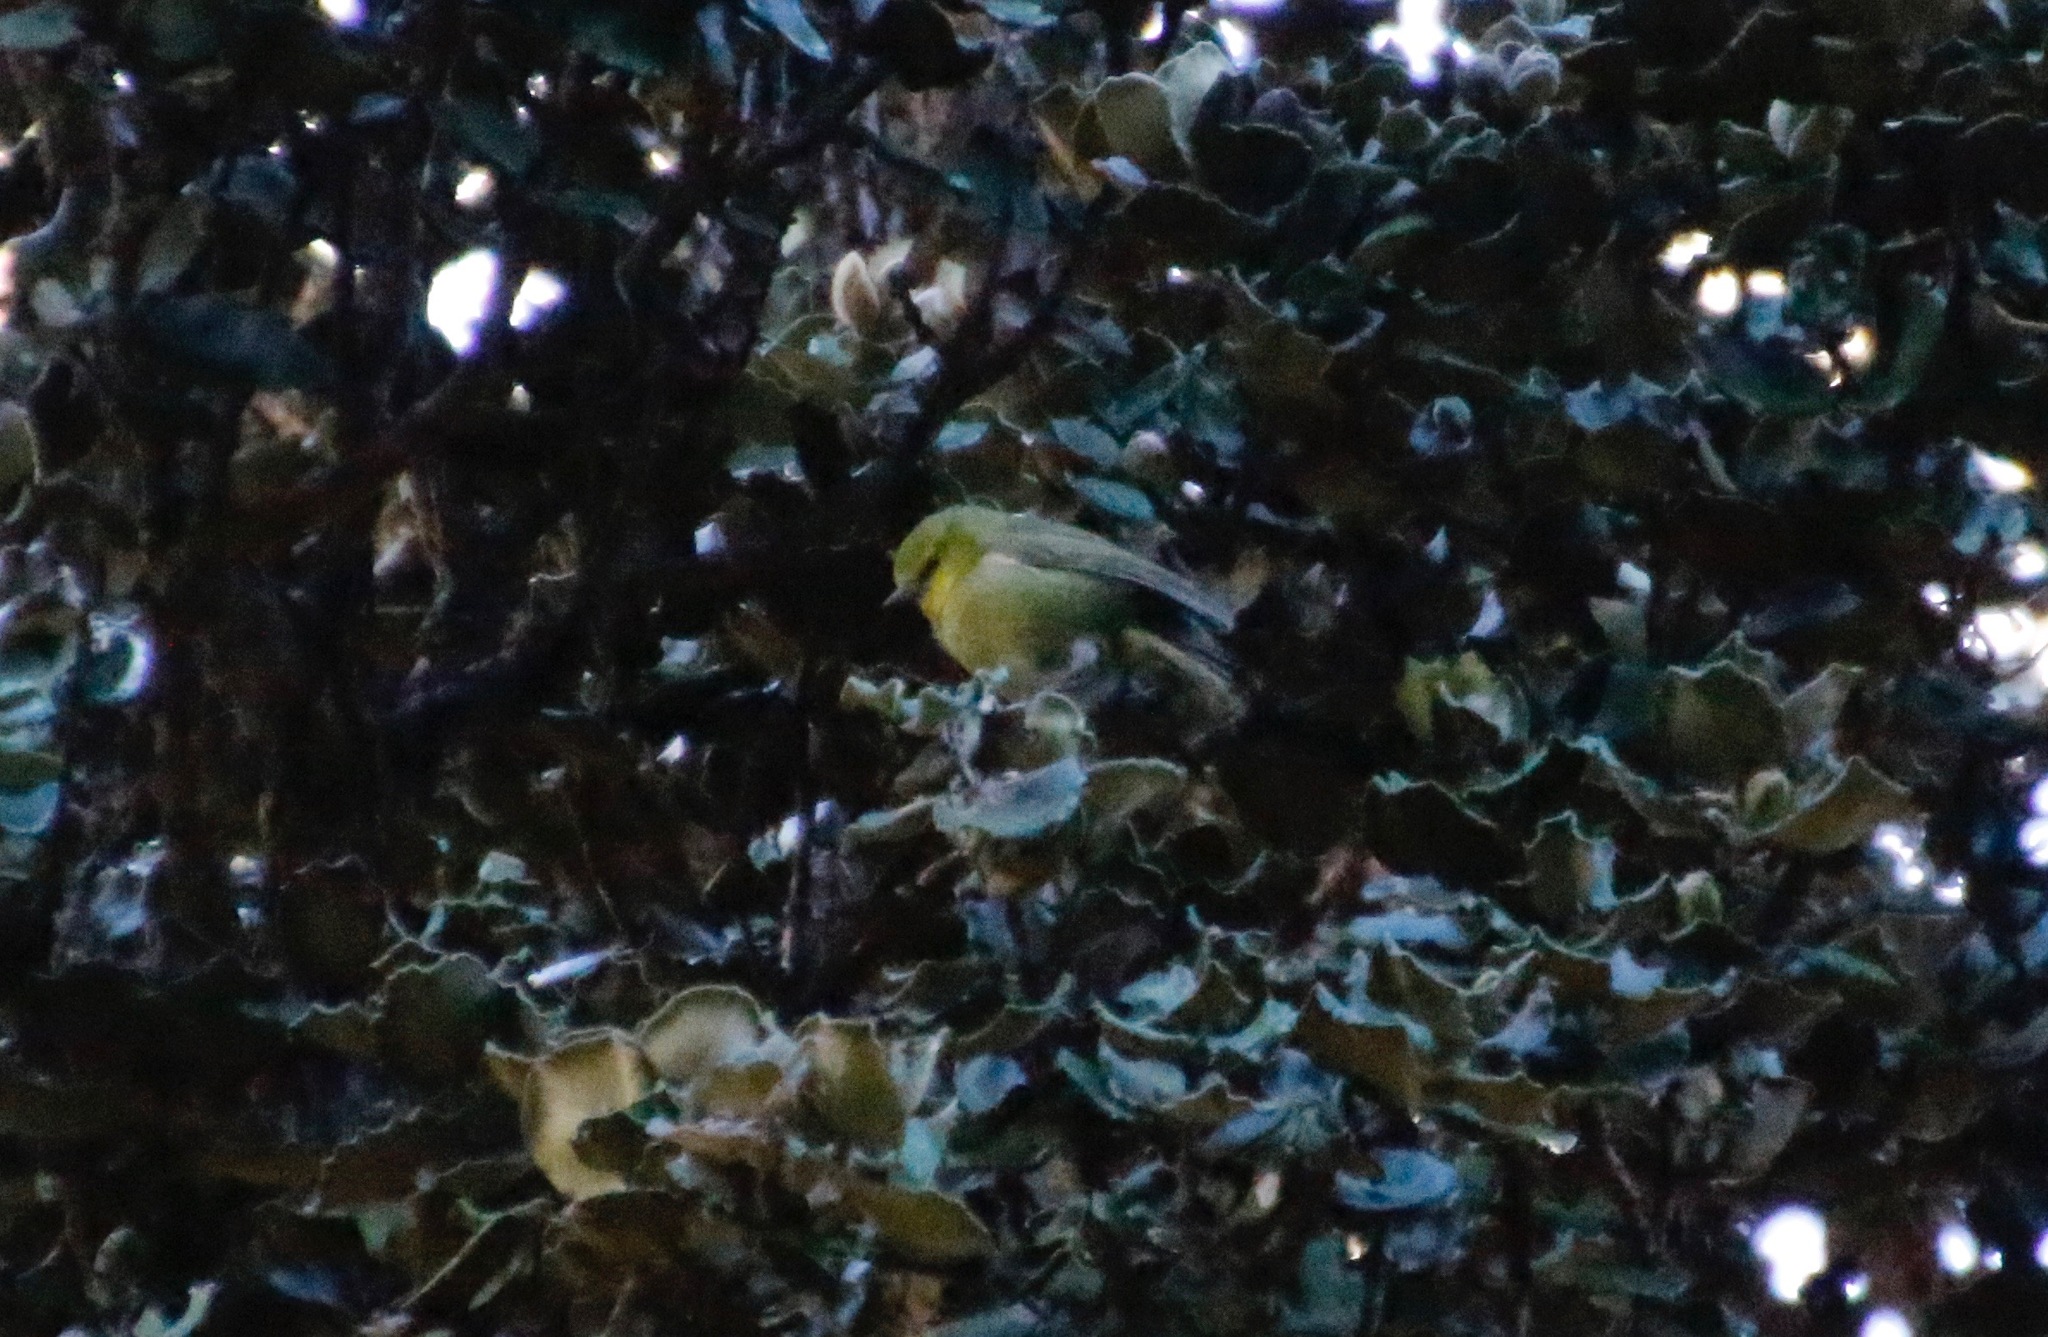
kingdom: Animalia
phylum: Chordata
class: Aves
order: Passeriformes
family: Fringillidae
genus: Paroreomyza
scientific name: Paroreomyza montana
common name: Maui alauahio
